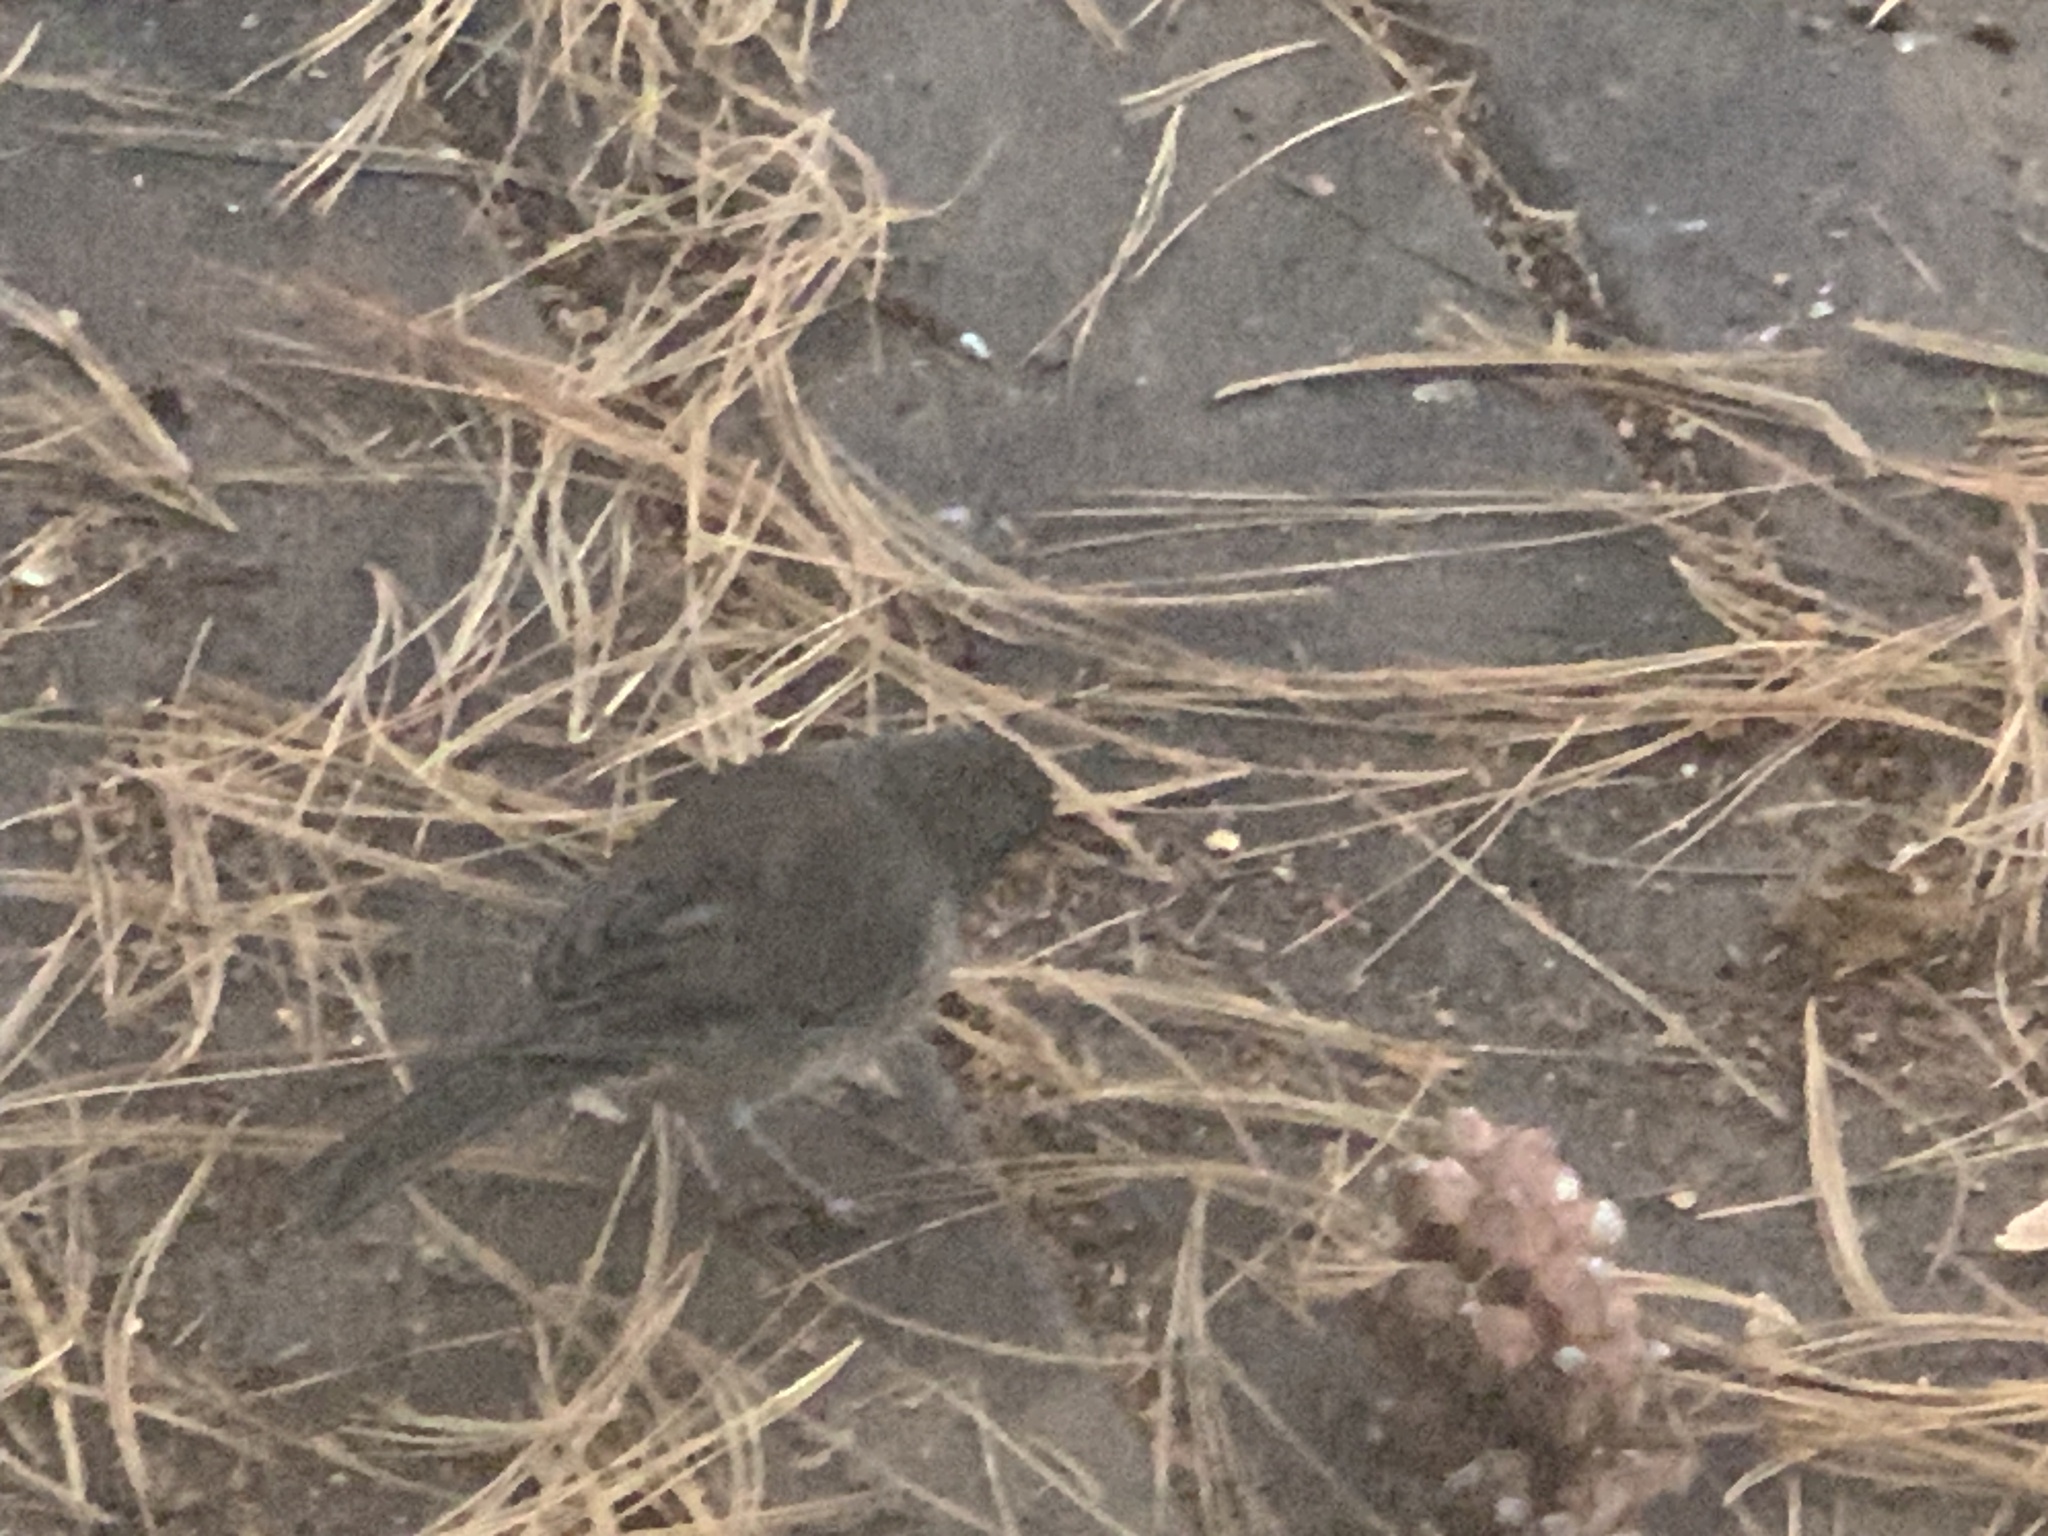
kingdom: Animalia
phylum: Chordata
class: Aves
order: Passeriformes
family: Passerellidae
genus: Junco
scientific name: Junco hyemalis
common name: Dark-eyed junco
